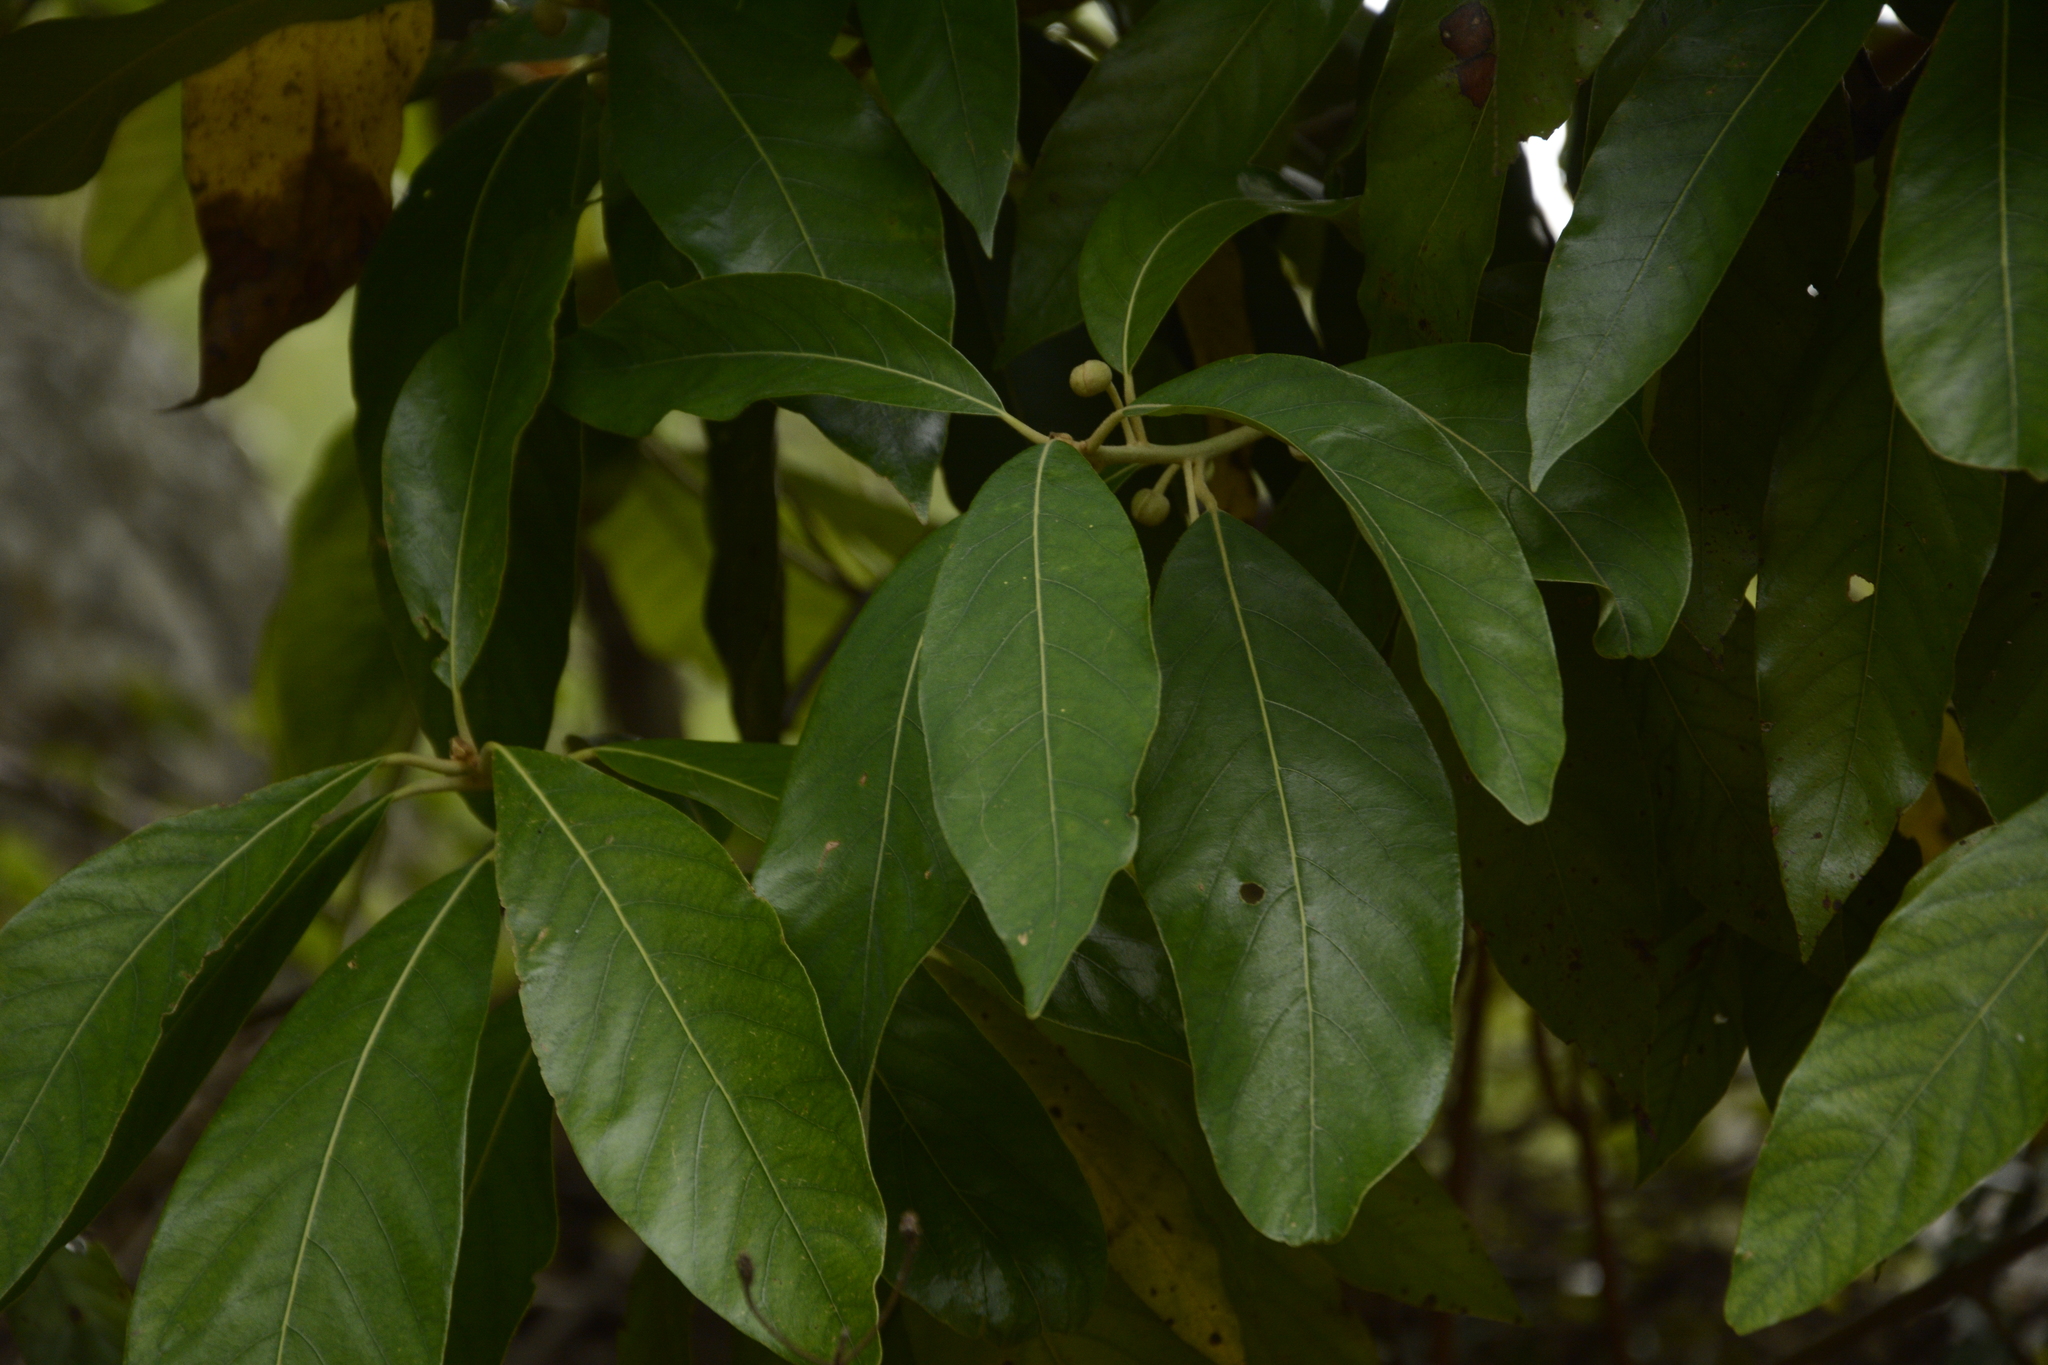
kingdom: Plantae
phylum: Tracheophyta
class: Magnoliopsida
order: Laurales
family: Lauraceae
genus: Litsea
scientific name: Litsea ligustrina
